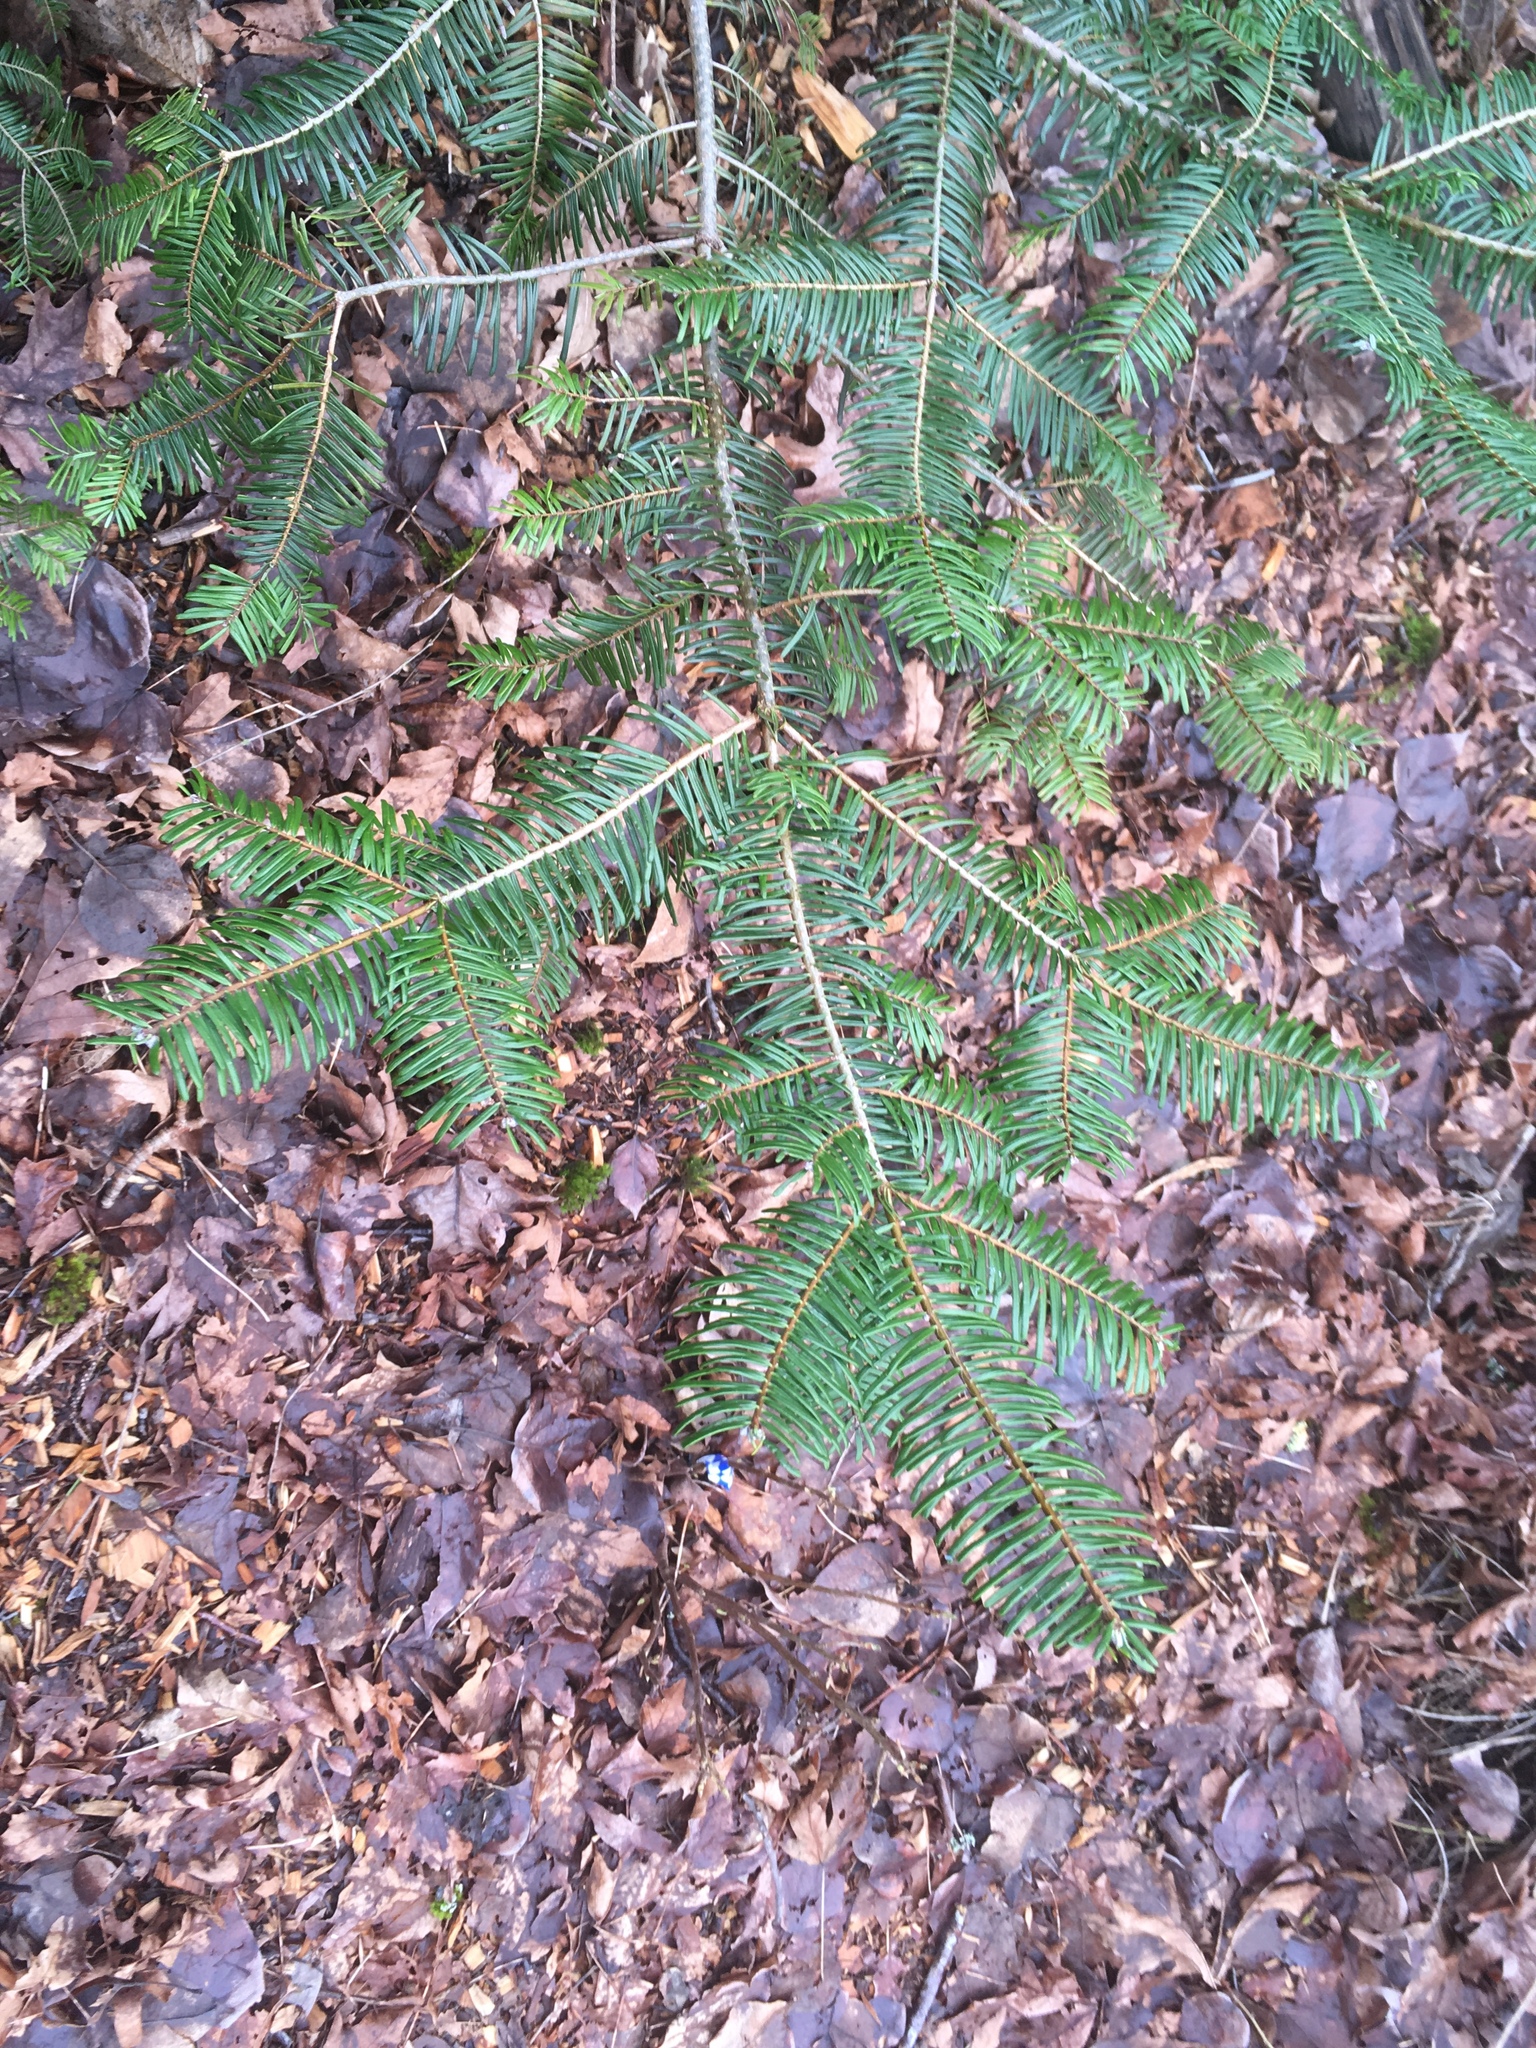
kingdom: Plantae
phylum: Tracheophyta
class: Pinopsida
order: Pinales
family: Pinaceae
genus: Abies
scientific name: Abies grandis
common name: Giant fir
